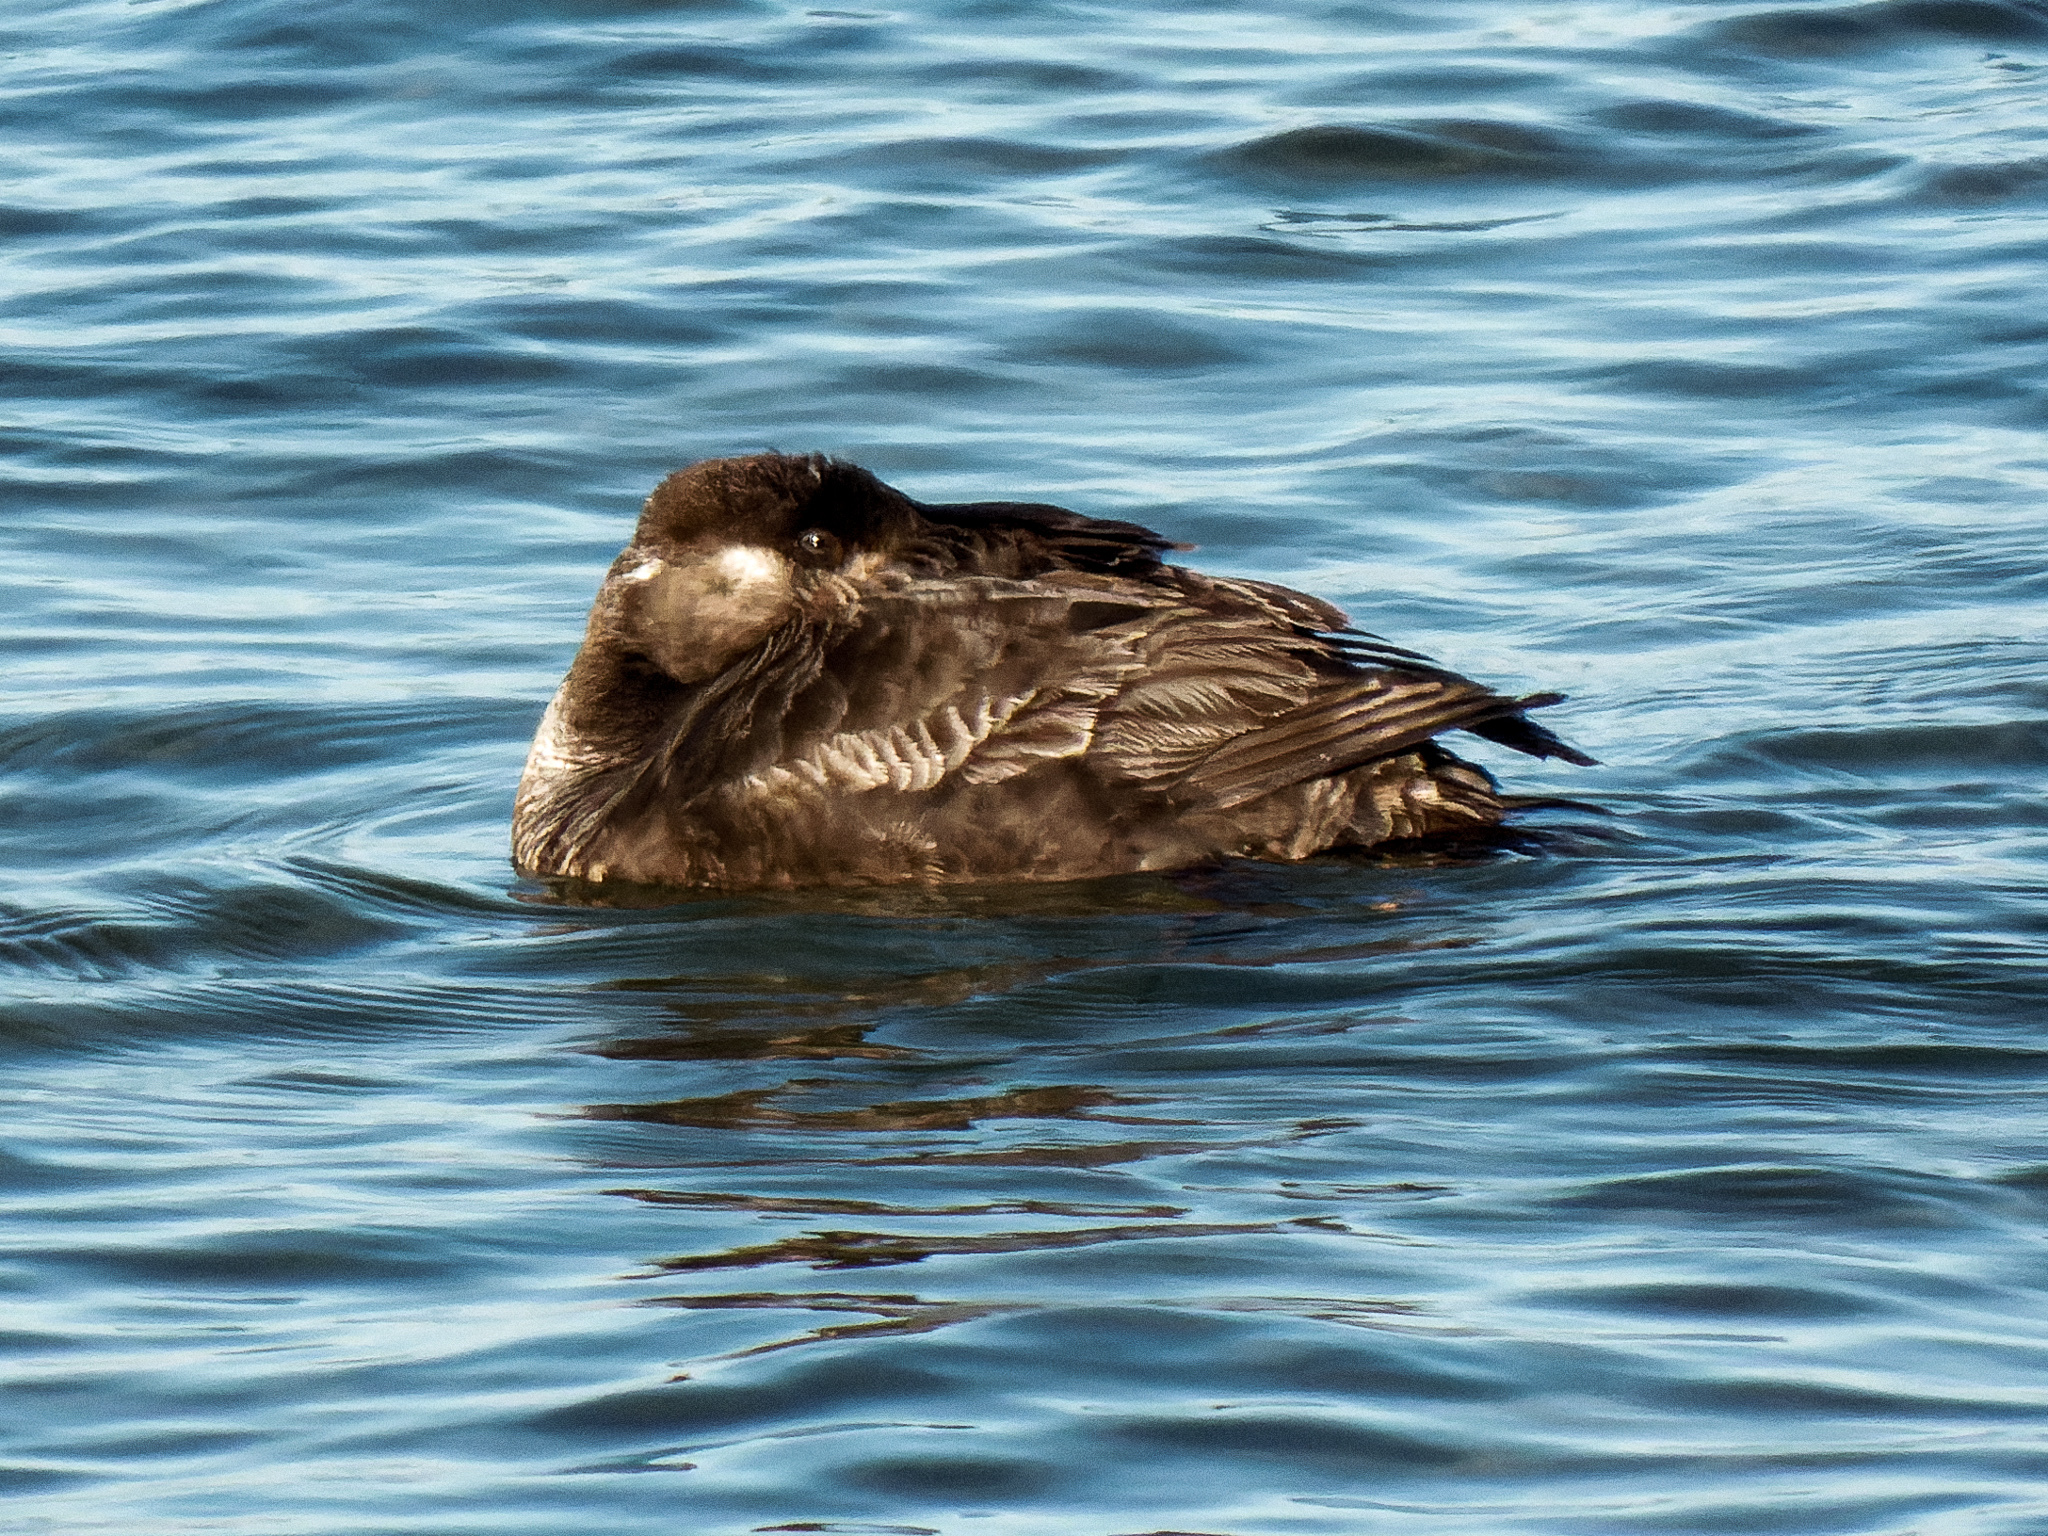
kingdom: Animalia
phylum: Chordata
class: Aves
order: Anseriformes
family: Anatidae
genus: Melanitta
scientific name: Melanitta perspicillata
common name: Surf scoter
